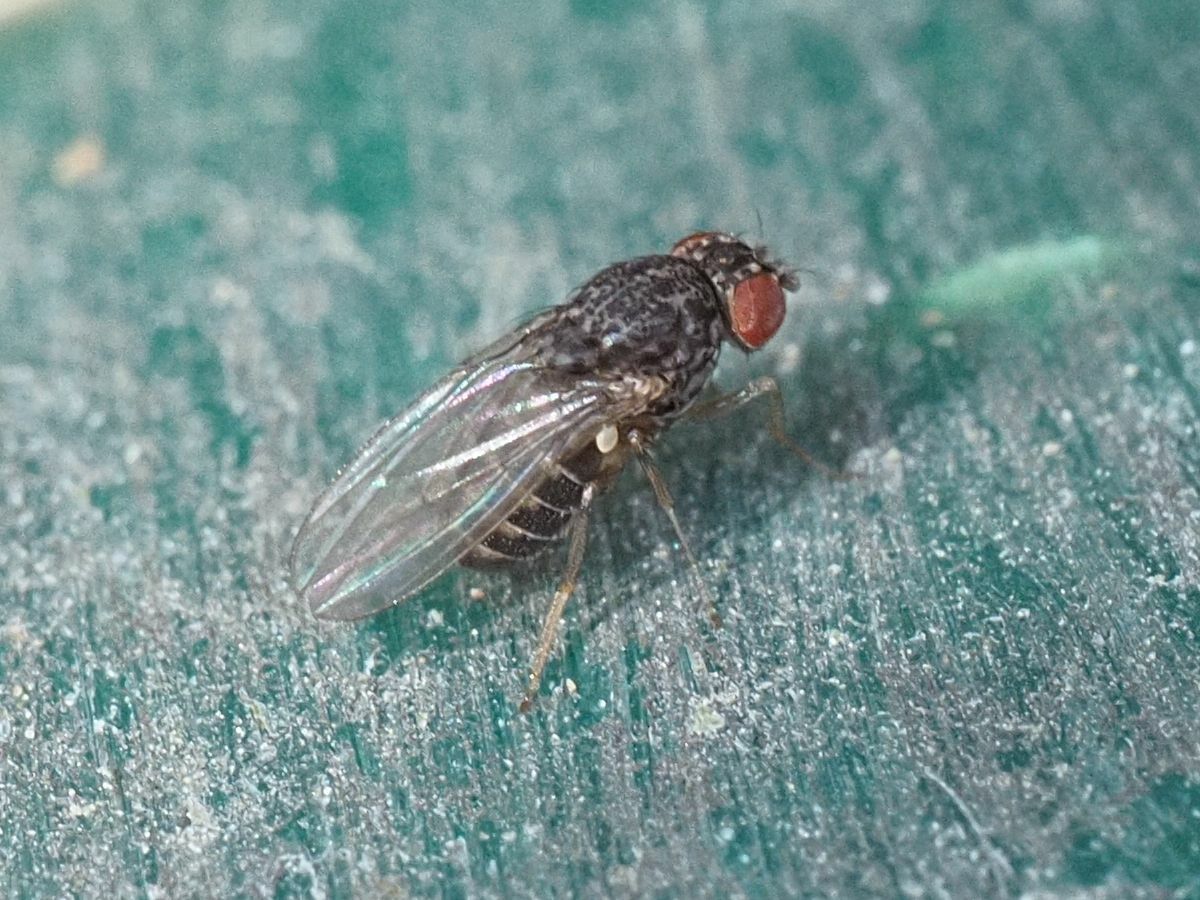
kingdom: Animalia
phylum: Arthropoda
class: Insecta
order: Diptera
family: Drosophilidae
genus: Drosophila
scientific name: Drosophila hydei
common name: Pomace fly
